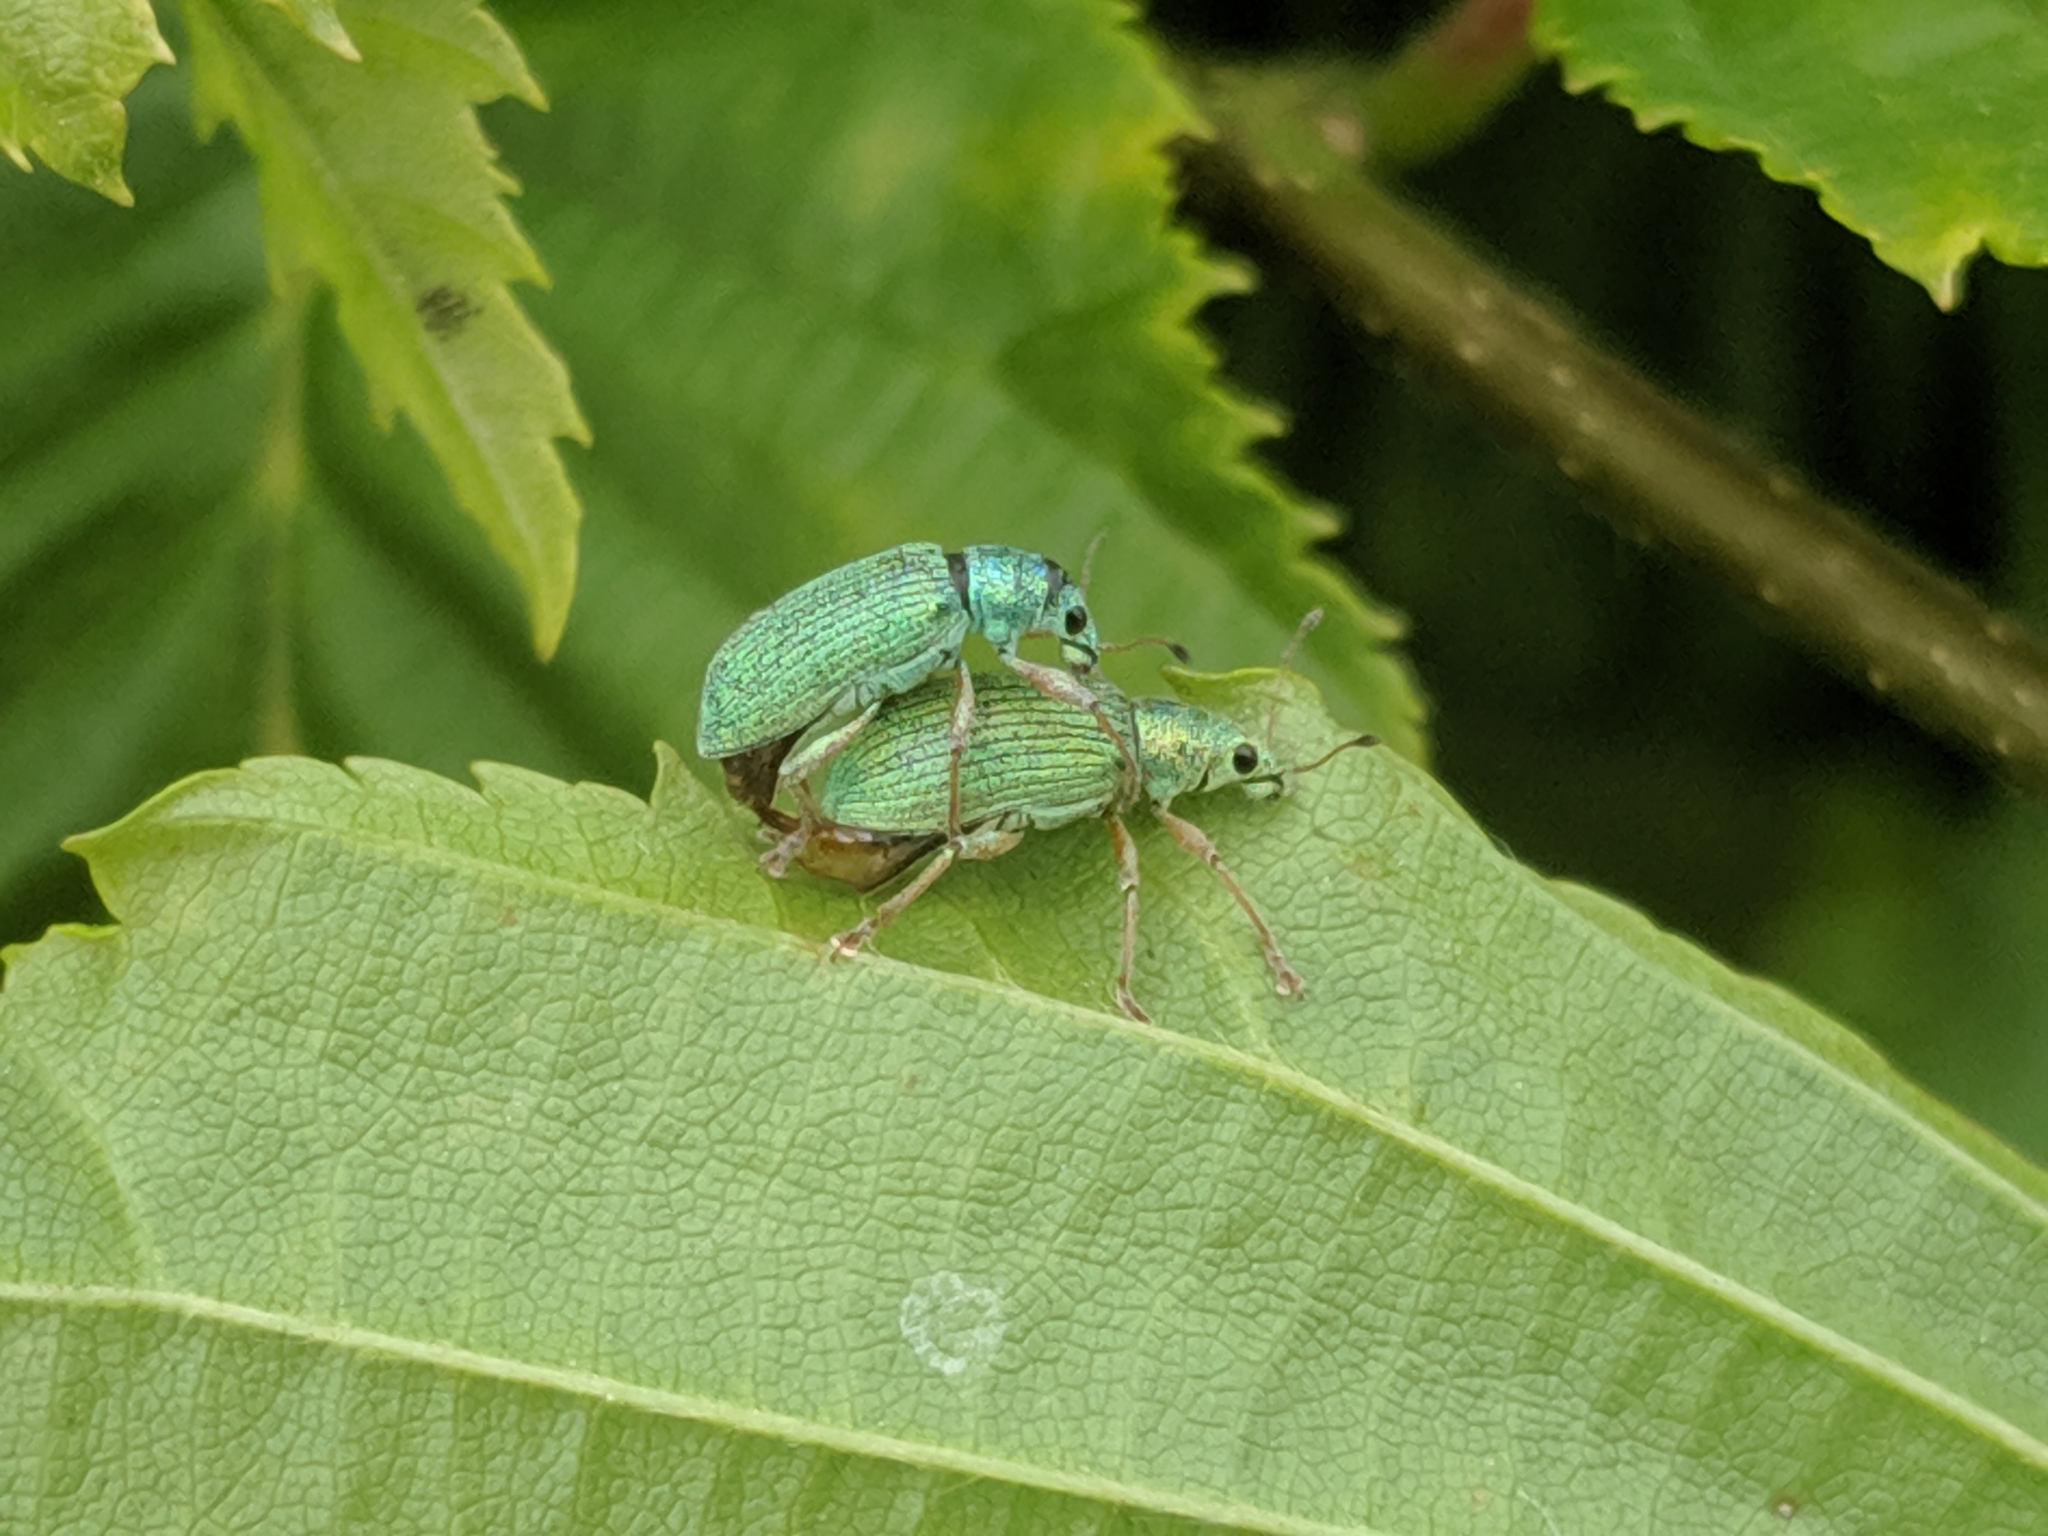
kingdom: Animalia
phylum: Arthropoda
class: Insecta
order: Coleoptera
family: Curculionidae
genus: Polydrusus
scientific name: Polydrusus formosus
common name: Weevil
